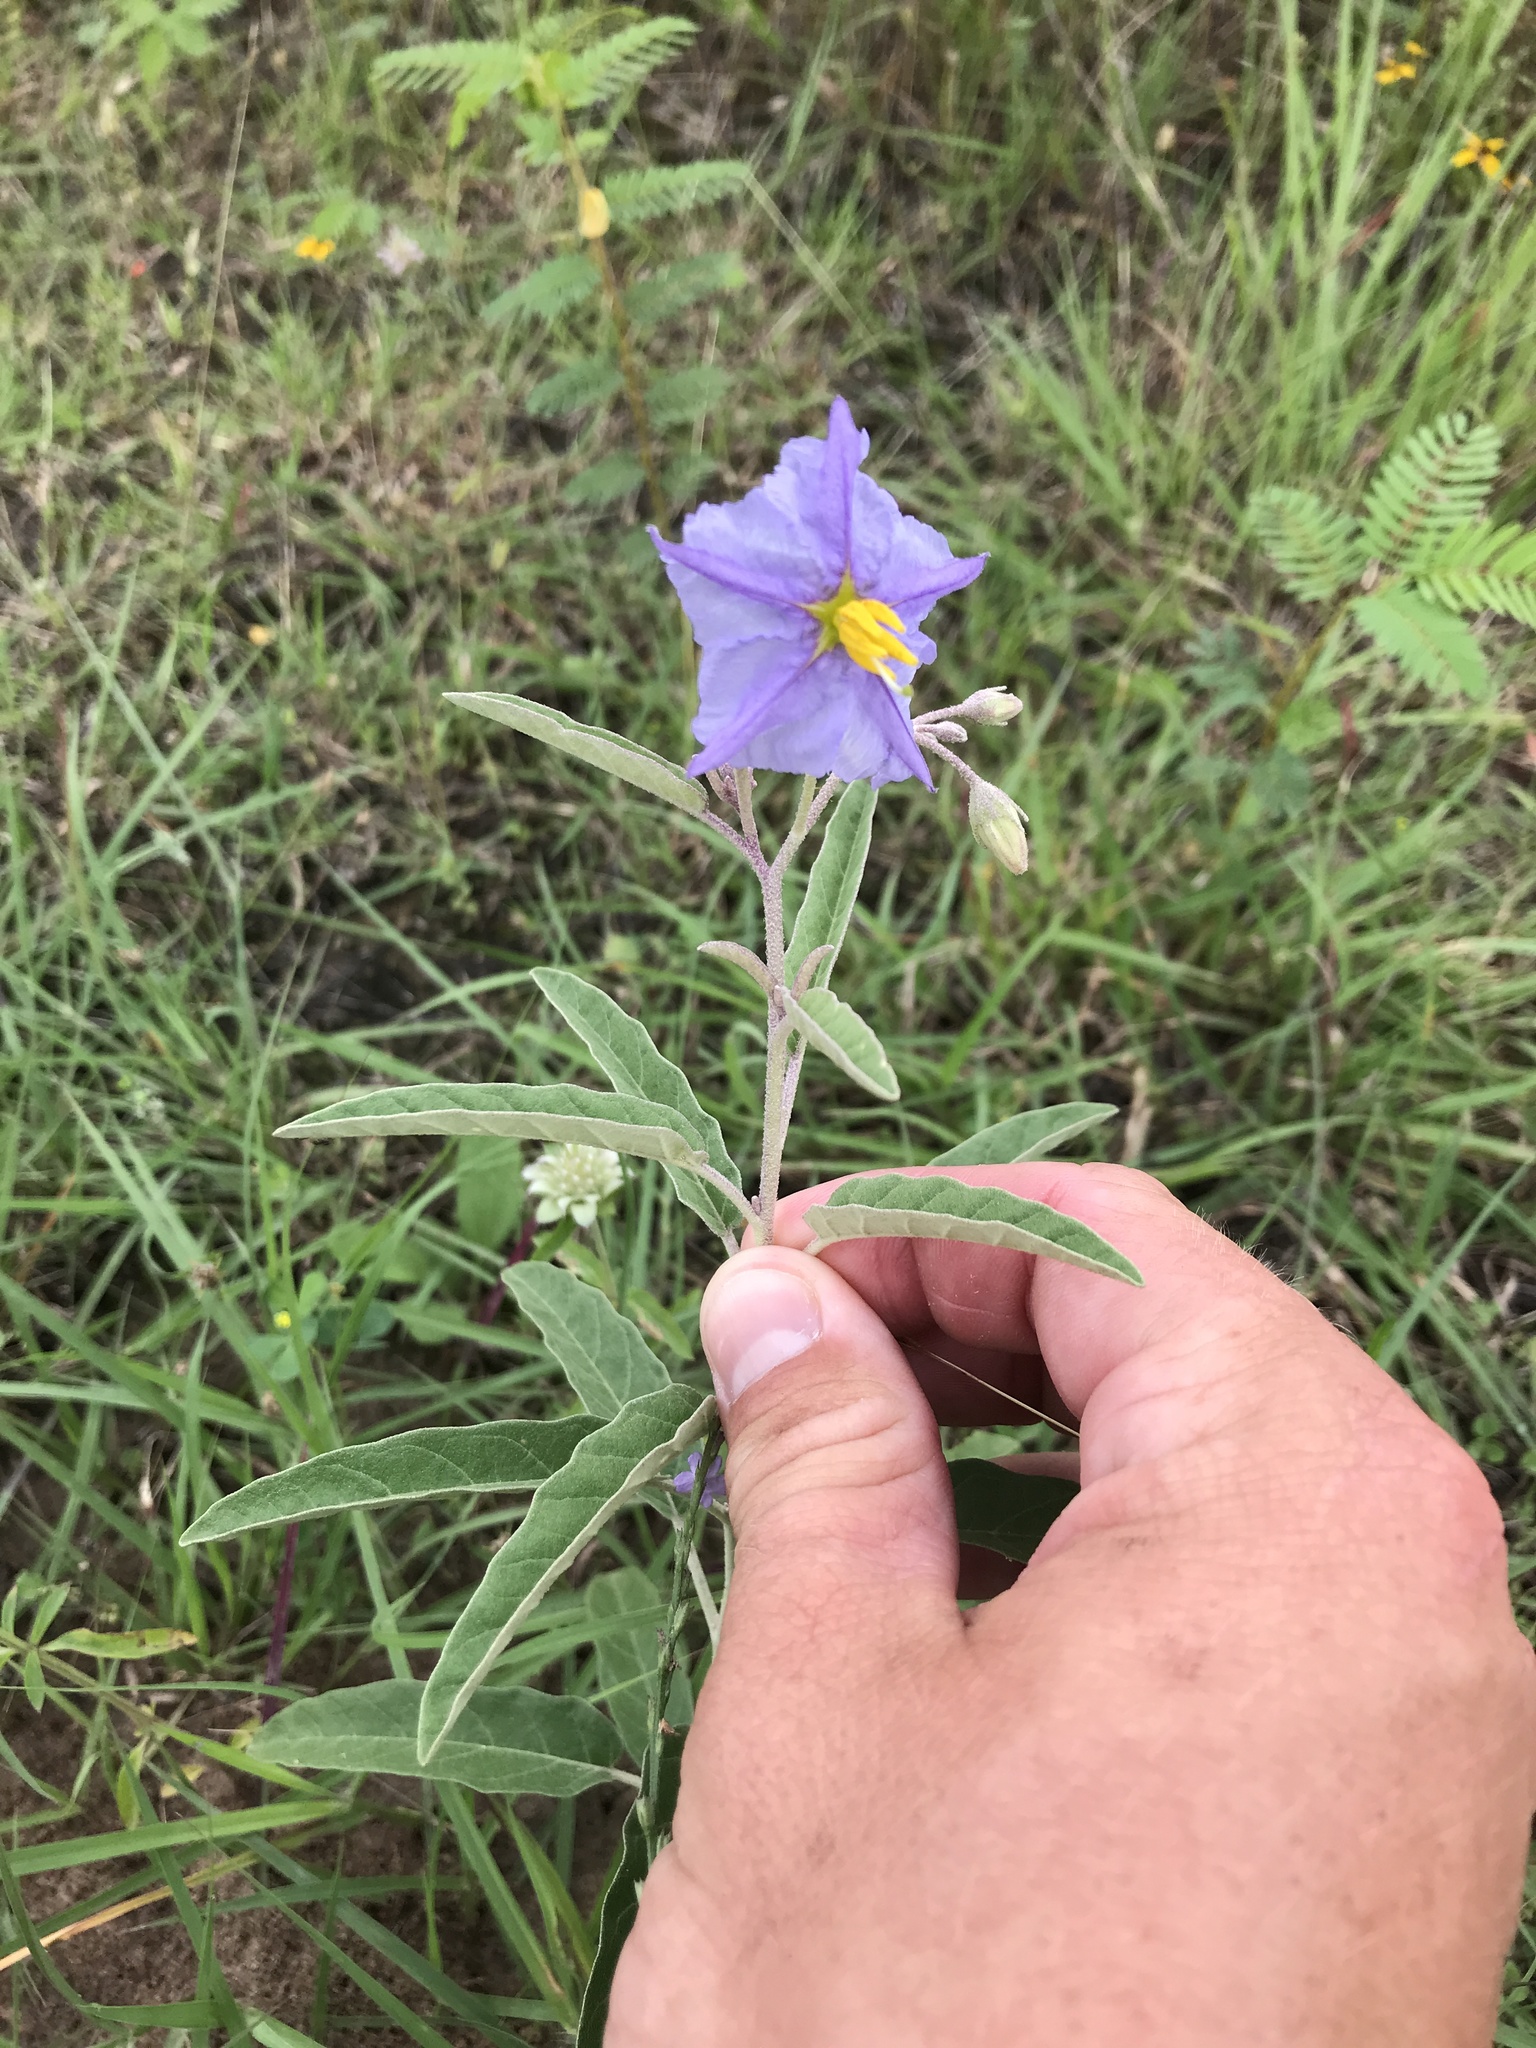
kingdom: Plantae
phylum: Tracheophyta
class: Magnoliopsida
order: Solanales
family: Solanaceae
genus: Solanum
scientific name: Solanum elaeagnifolium
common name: Silverleaf nightshade
